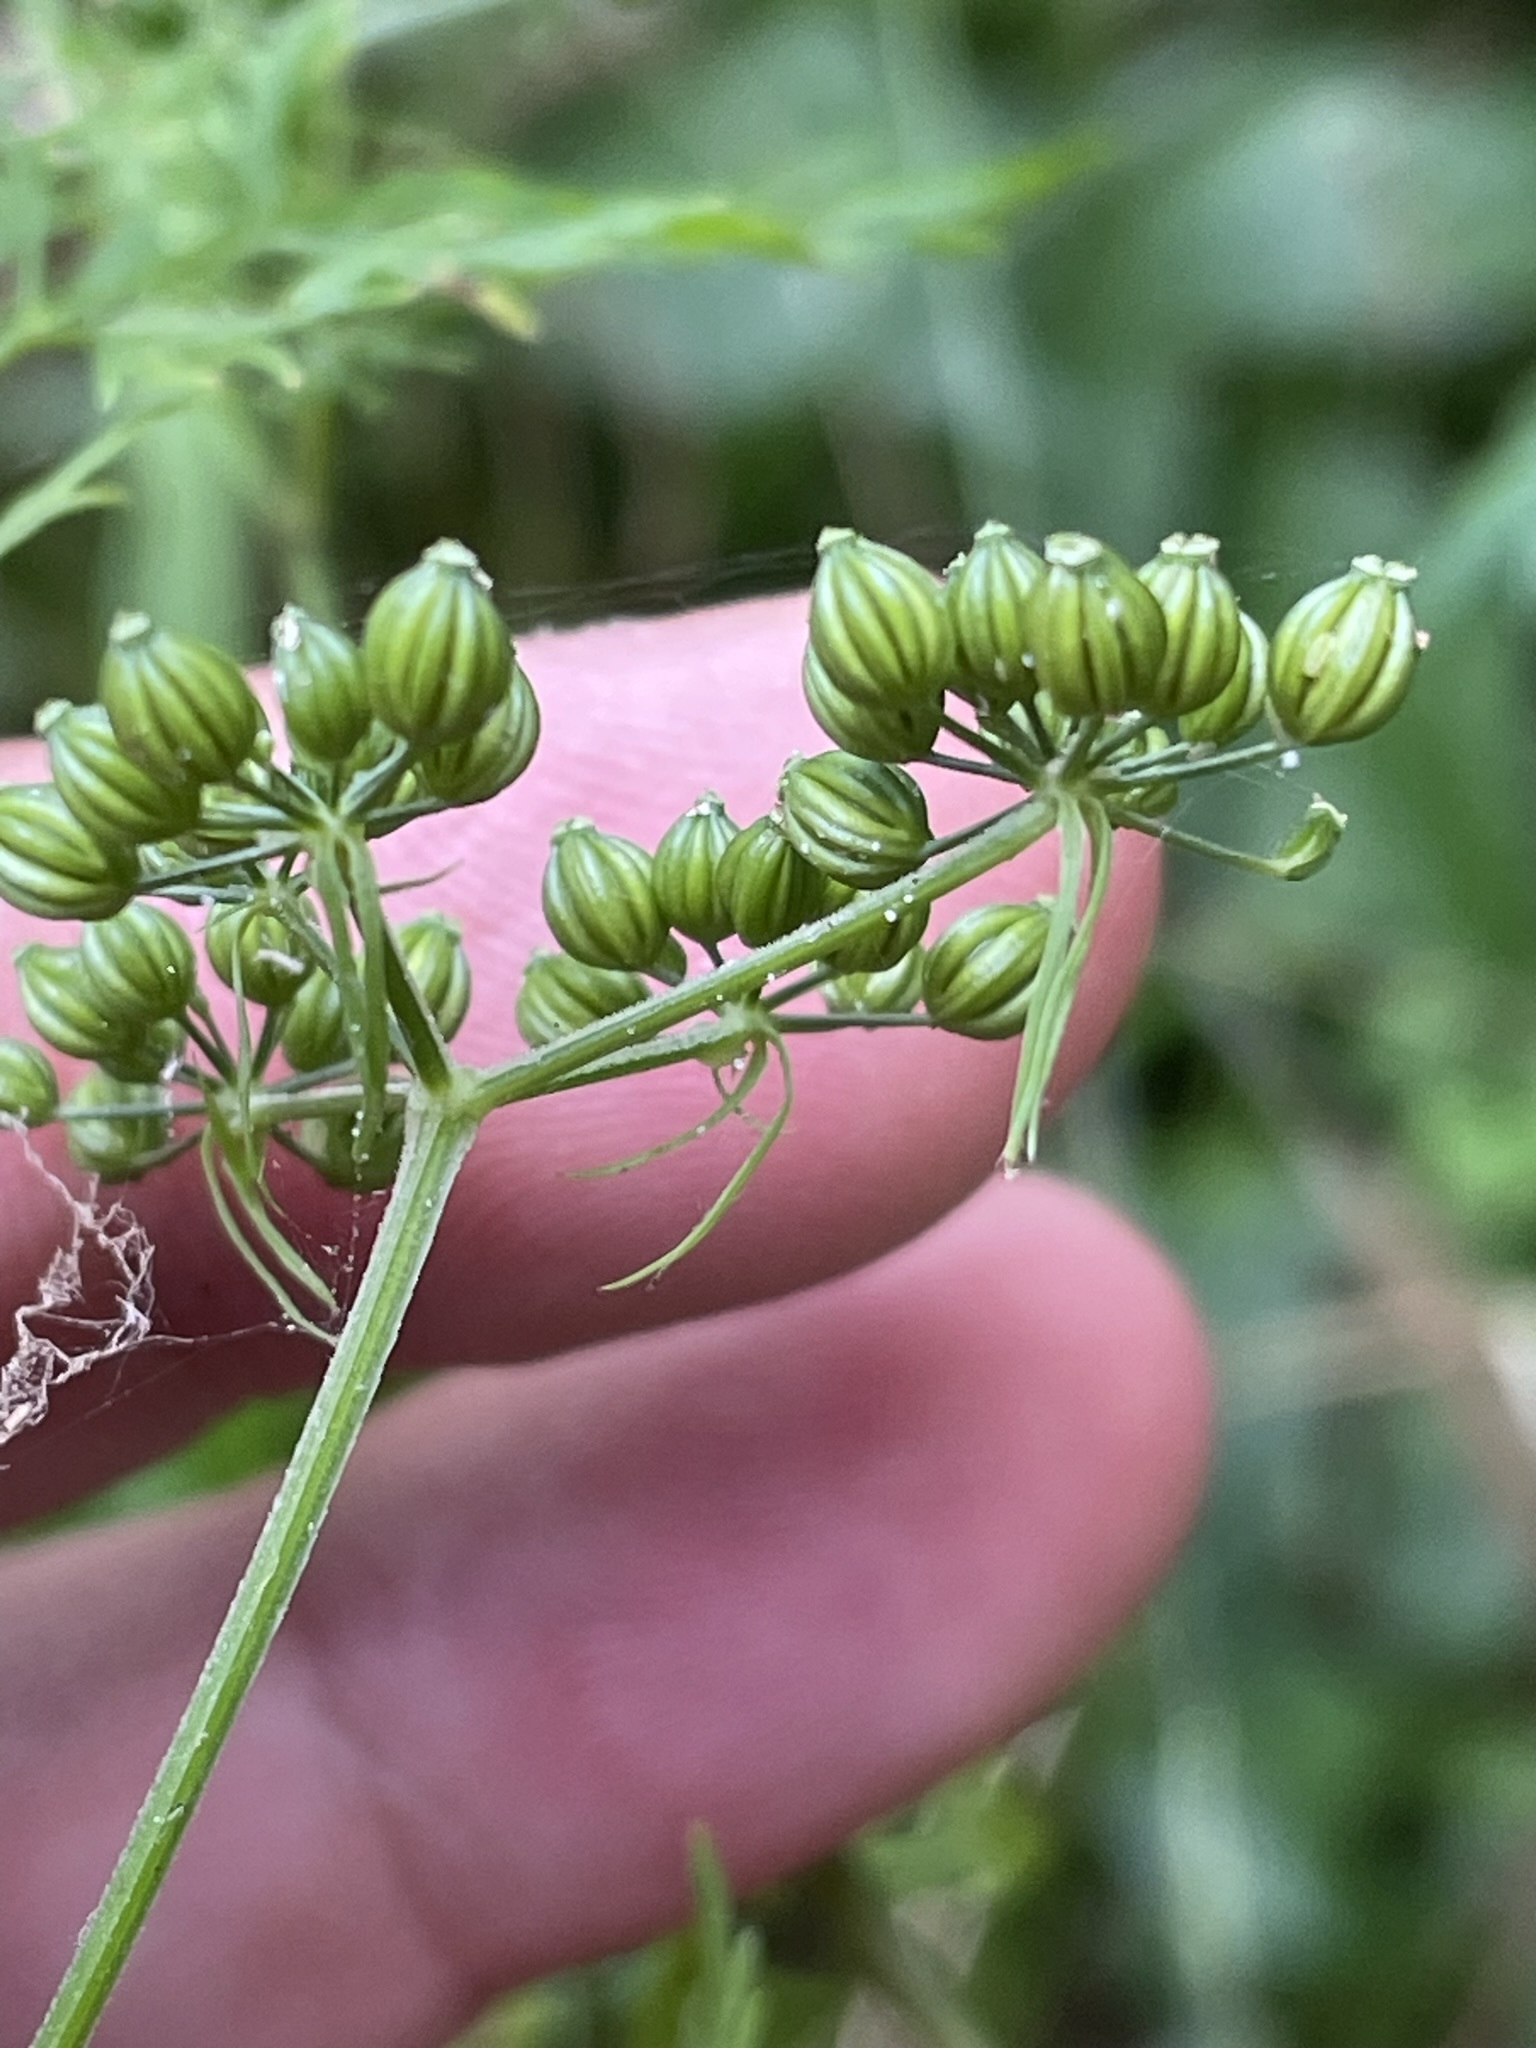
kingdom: Plantae
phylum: Tracheophyta
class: Magnoliopsida
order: Apiales
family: Apiaceae
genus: Aethusa
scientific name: Aethusa cynapium
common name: Fool's parsley
